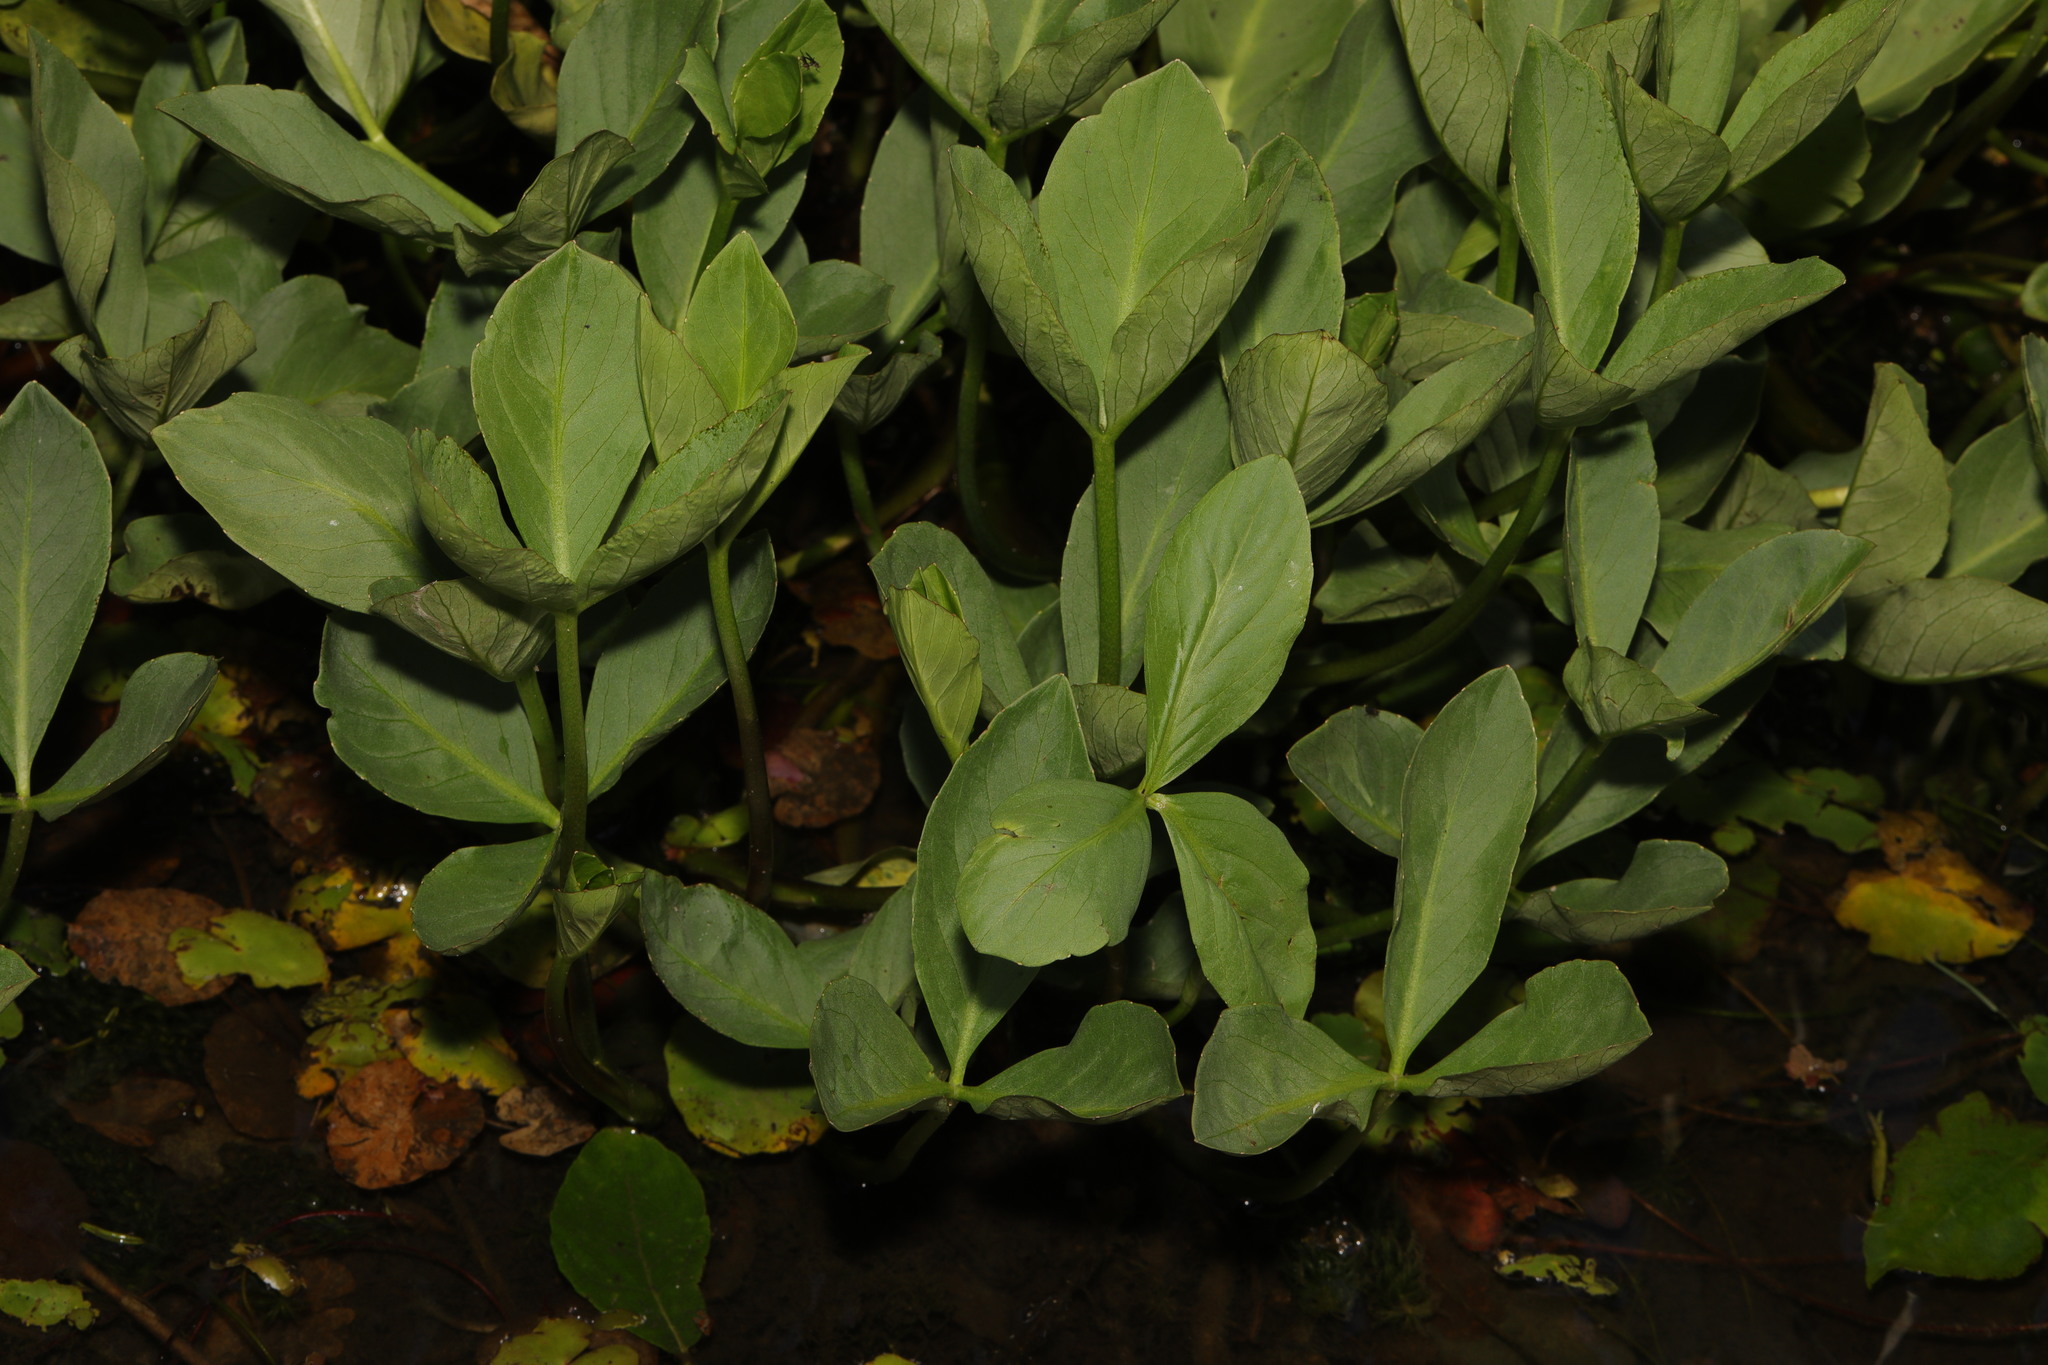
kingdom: Plantae
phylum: Tracheophyta
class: Magnoliopsida
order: Asterales
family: Menyanthaceae
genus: Menyanthes
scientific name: Menyanthes trifoliata
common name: Bogbean
